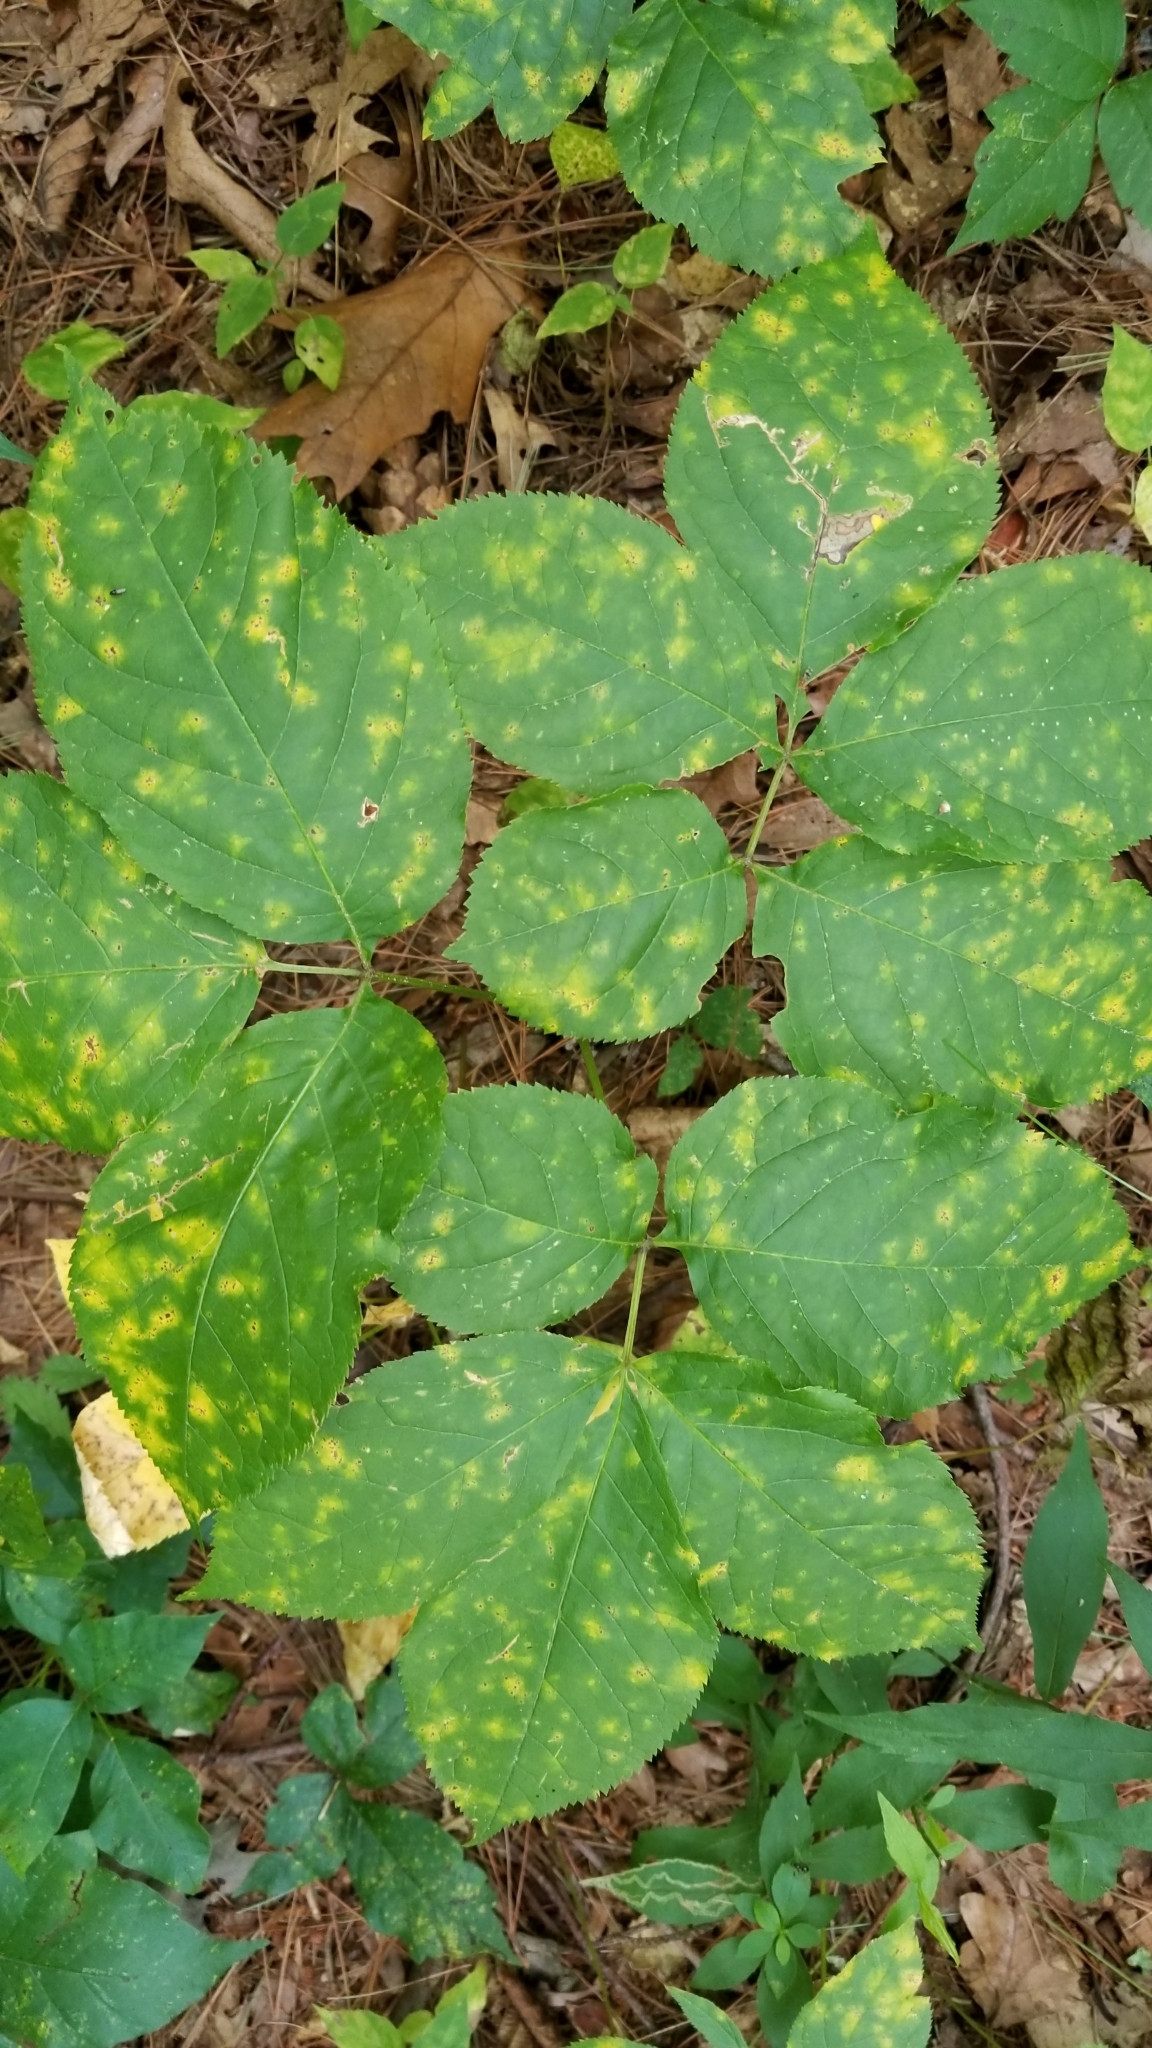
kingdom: Plantae
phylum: Tracheophyta
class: Magnoliopsida
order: Apiales
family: Araliaceae
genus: Aralia
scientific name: Aralia nudicaulis
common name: Wild sarsaparilla
